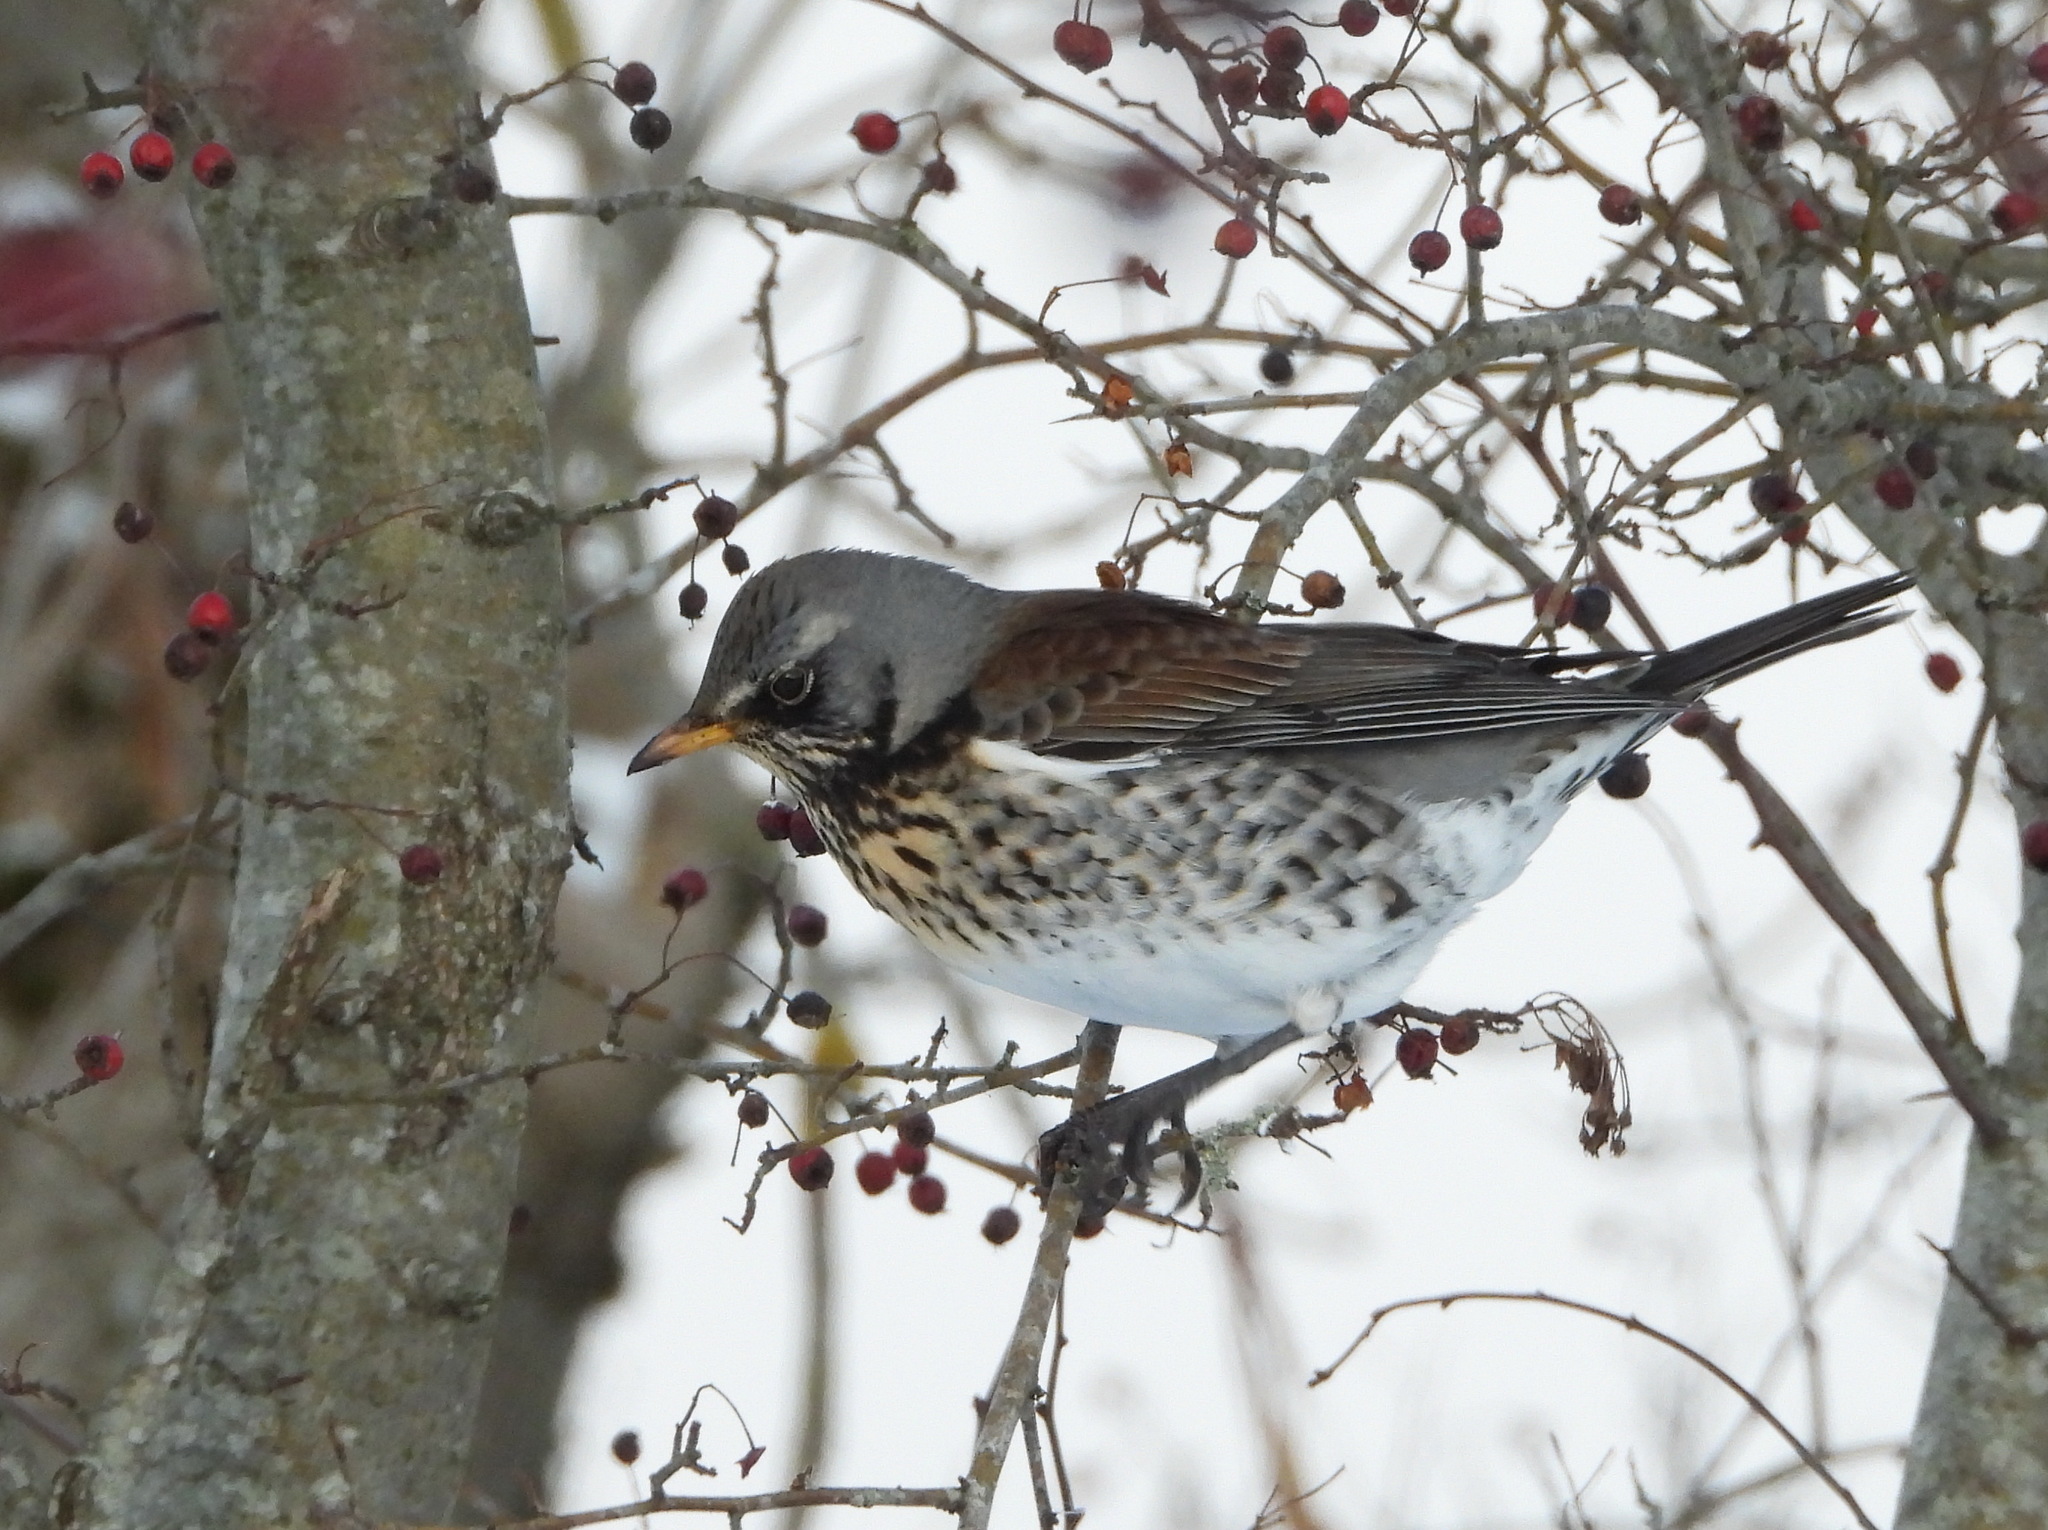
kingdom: Animalia
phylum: Chordata
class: Aves
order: Passeriformes
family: Turdidae
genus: Turdus
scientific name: Turdus pilaris
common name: Fieldfare
